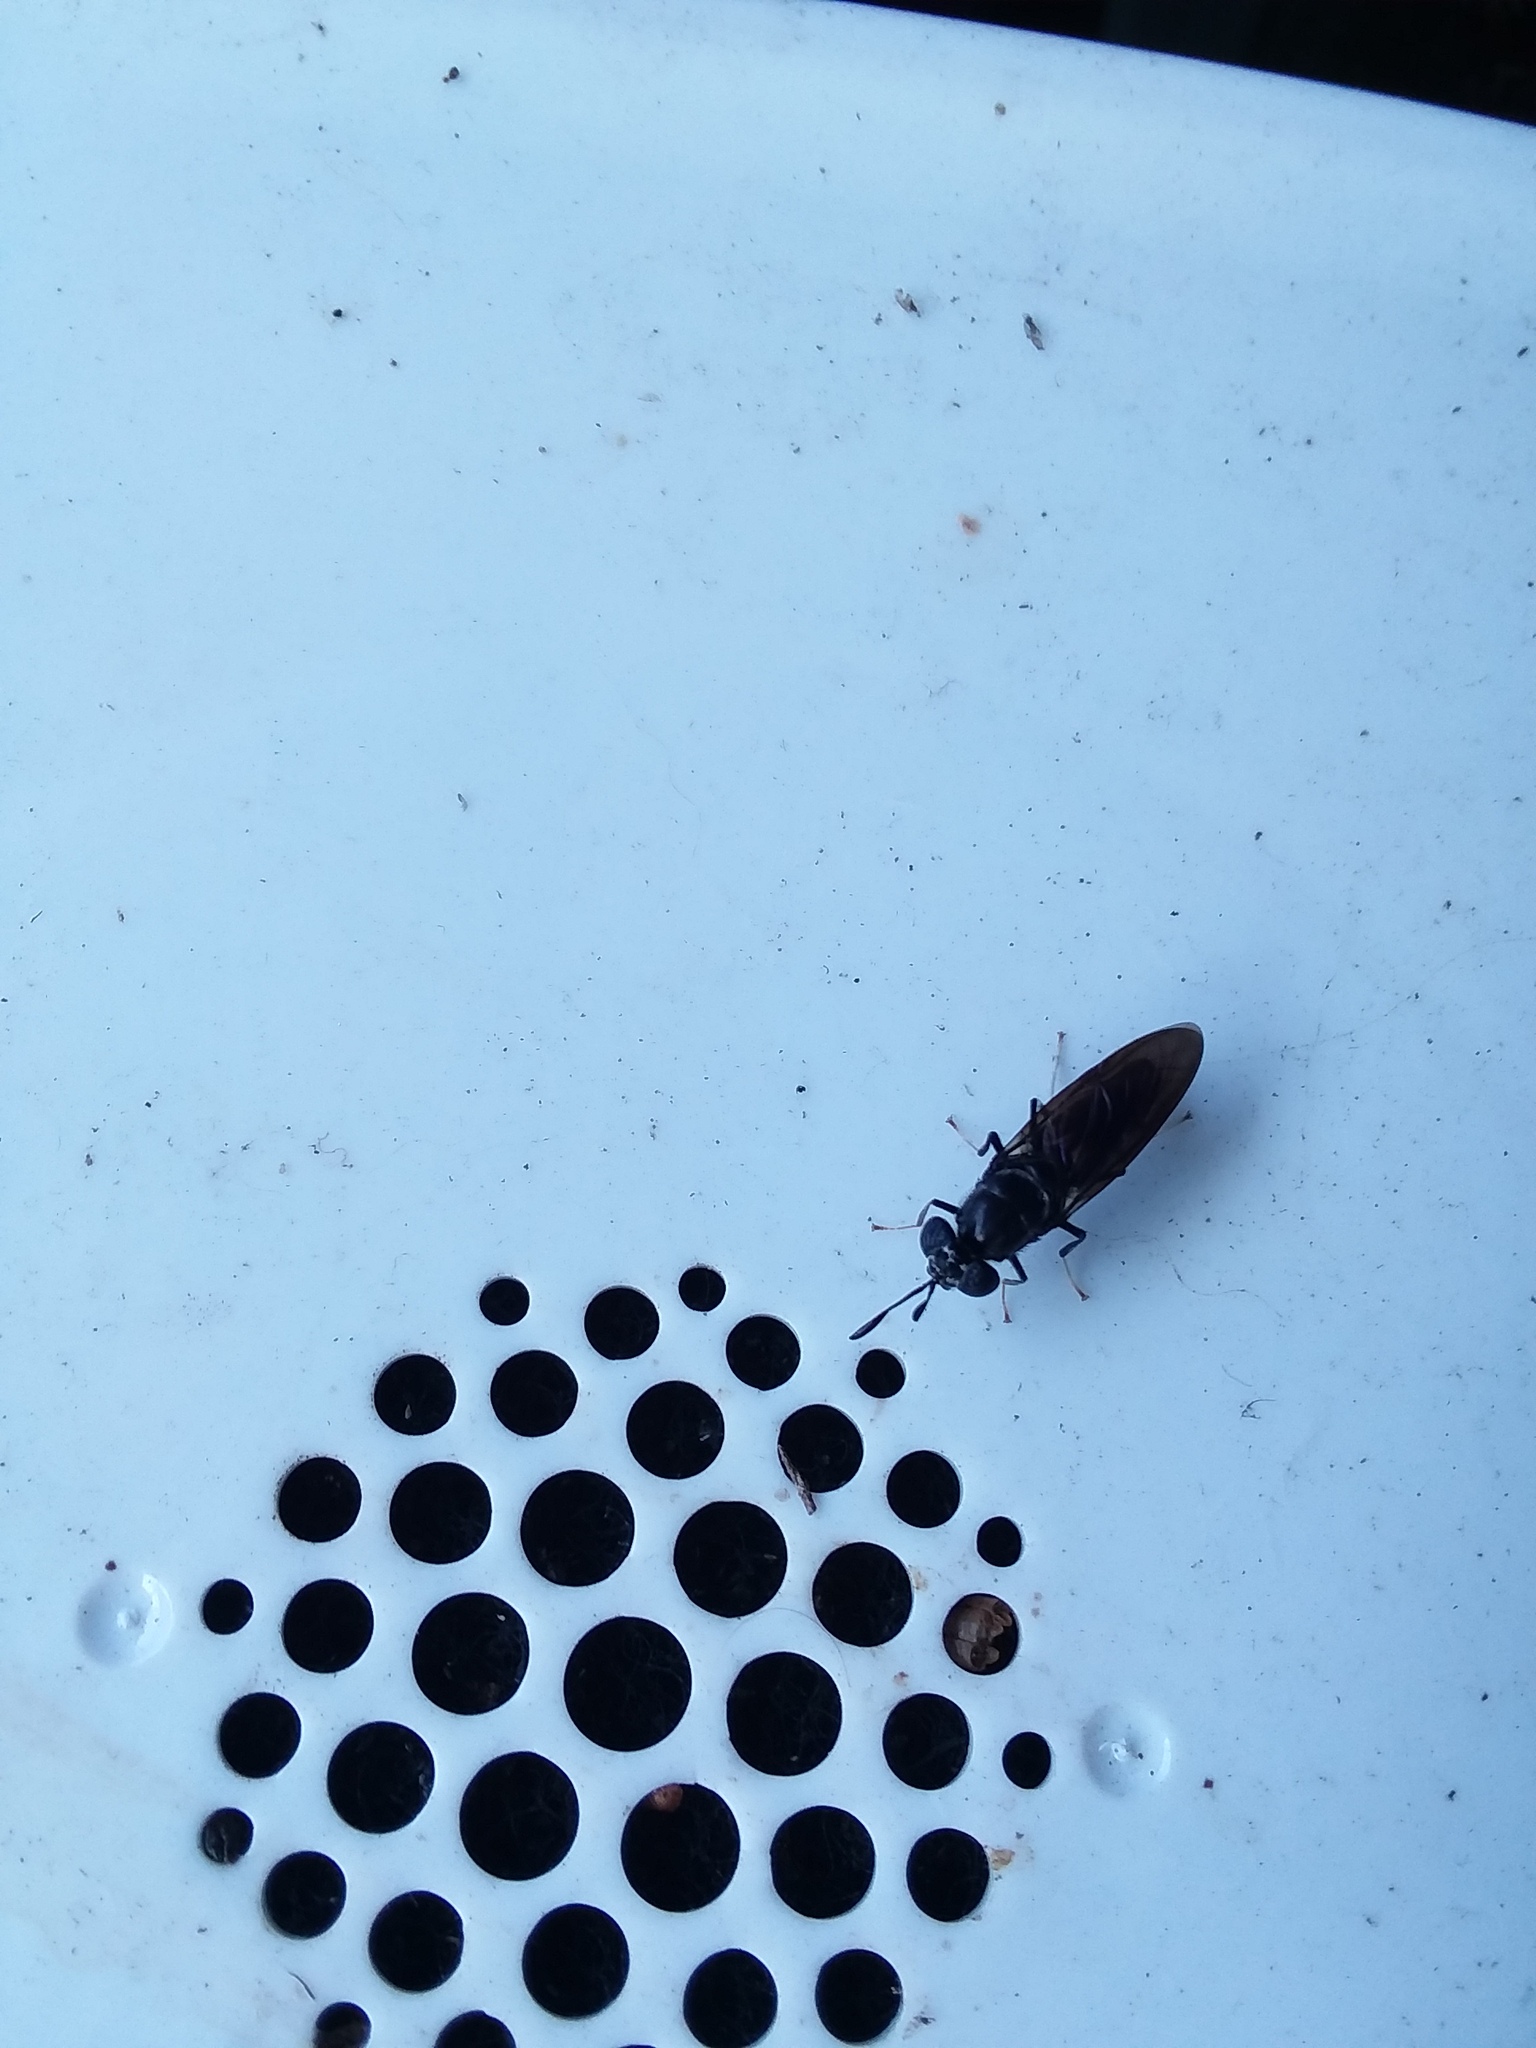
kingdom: Animalia
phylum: Arthropoda
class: Insecta
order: Diptera
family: Stratiomyidae
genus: Hermetia
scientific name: Hermetia illucens
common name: Black soldier fly
